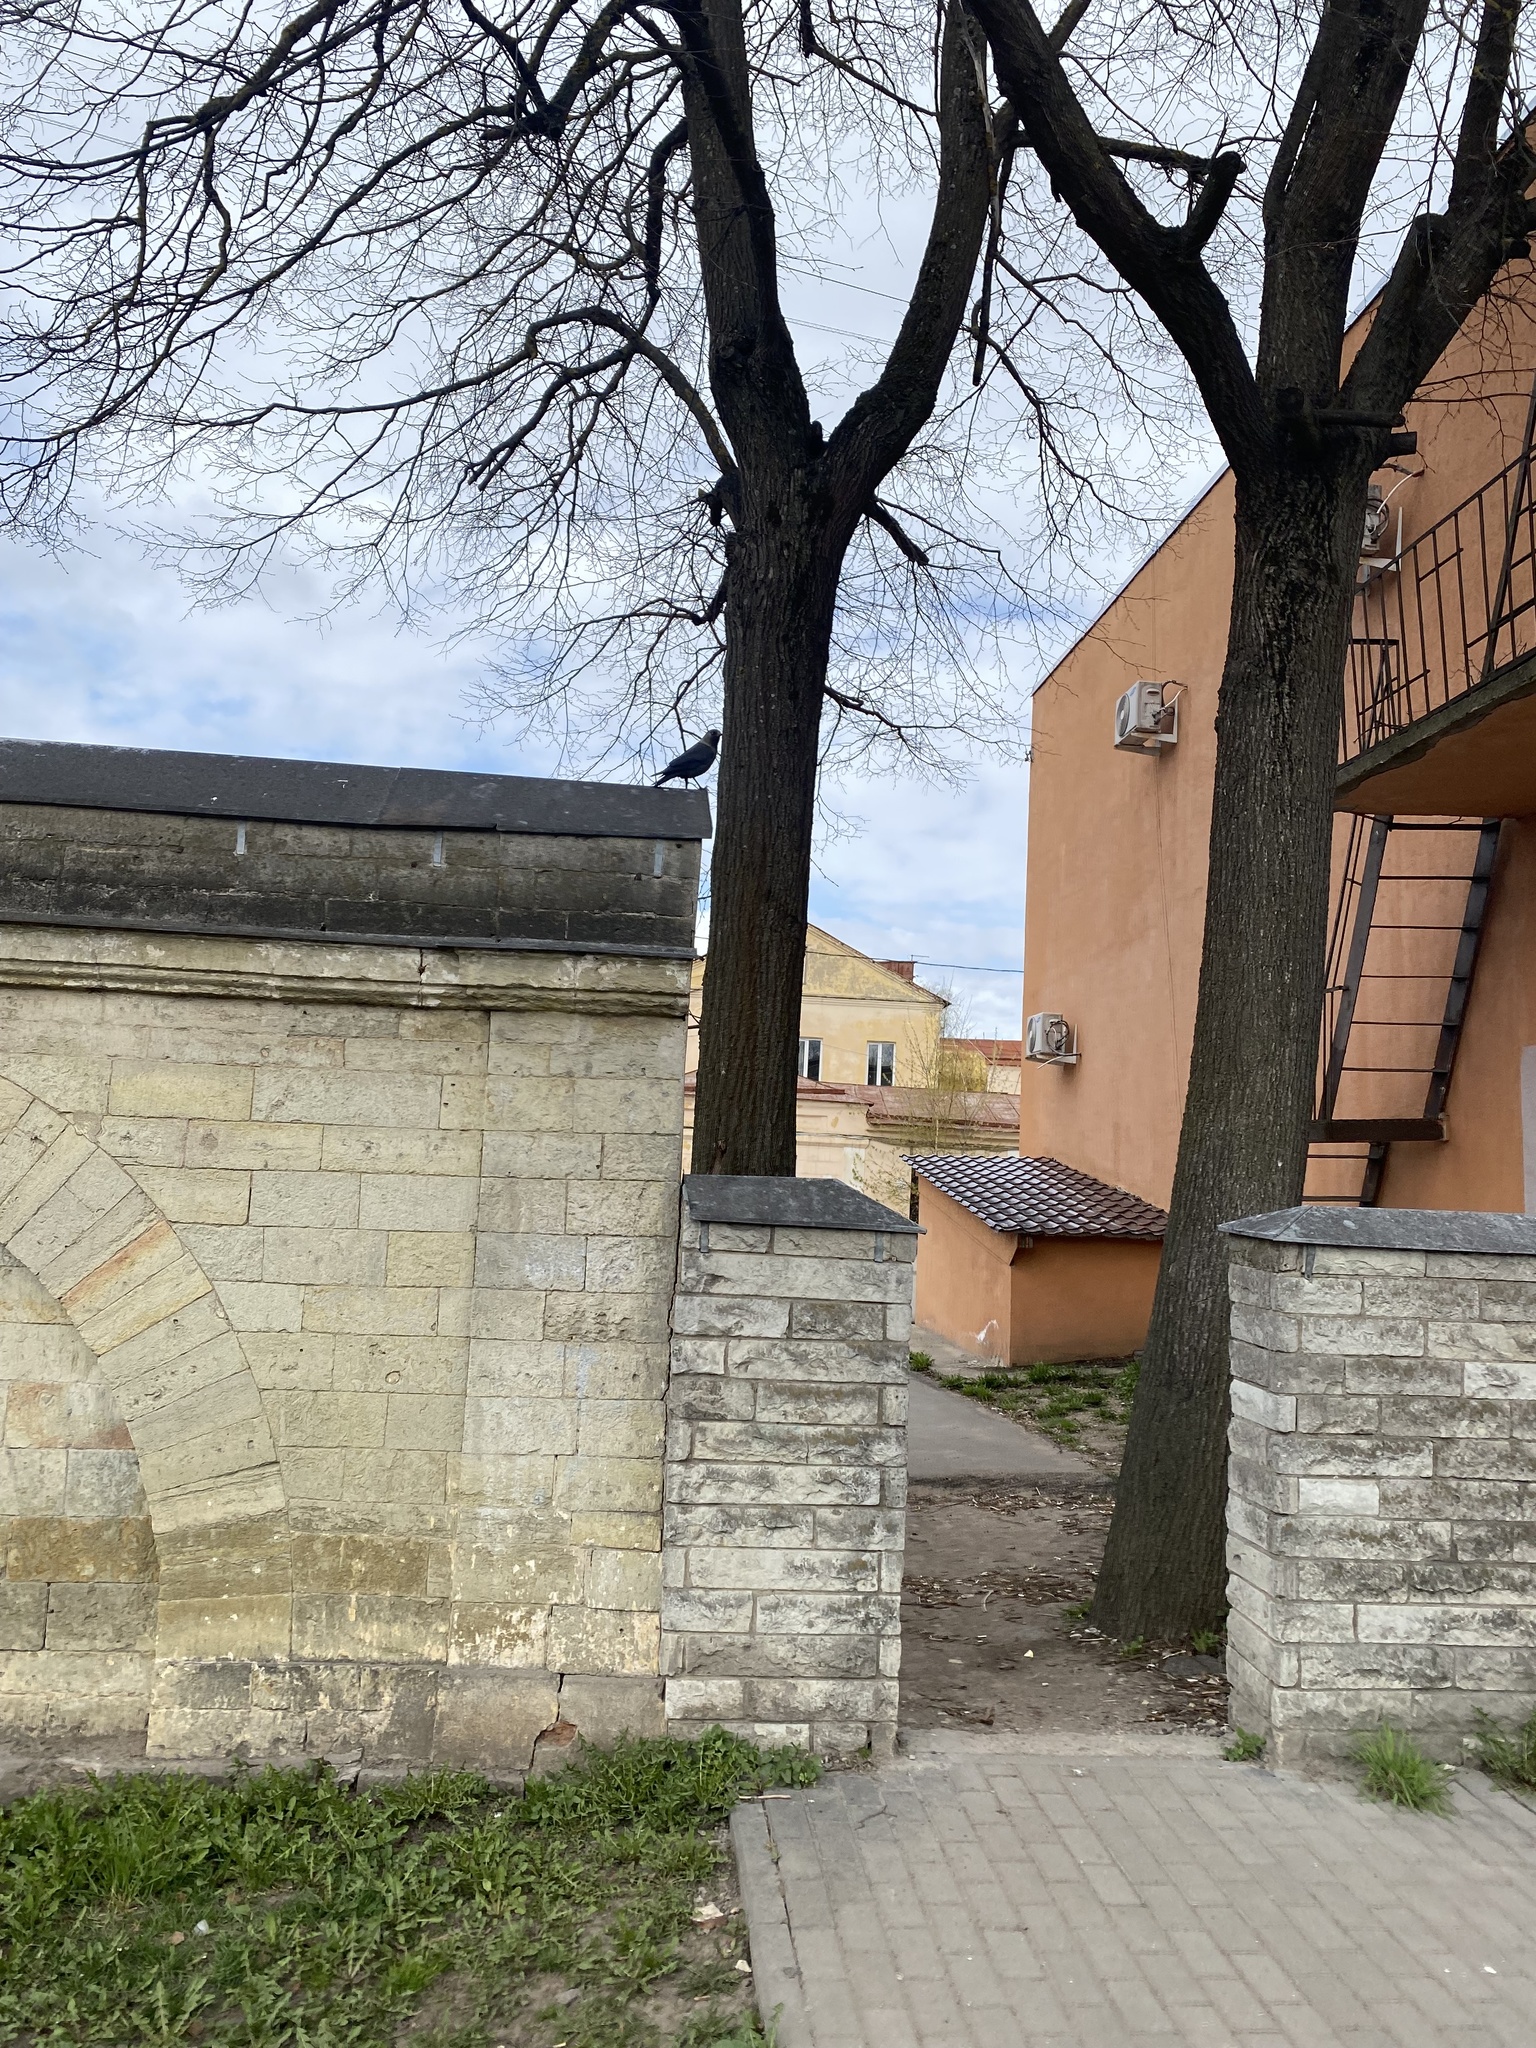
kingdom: Animalia
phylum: Chordata
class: Aves
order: Passeriformes
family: Corvidae
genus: Coloeus
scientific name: Coloeus monedula
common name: Western jackdaw
